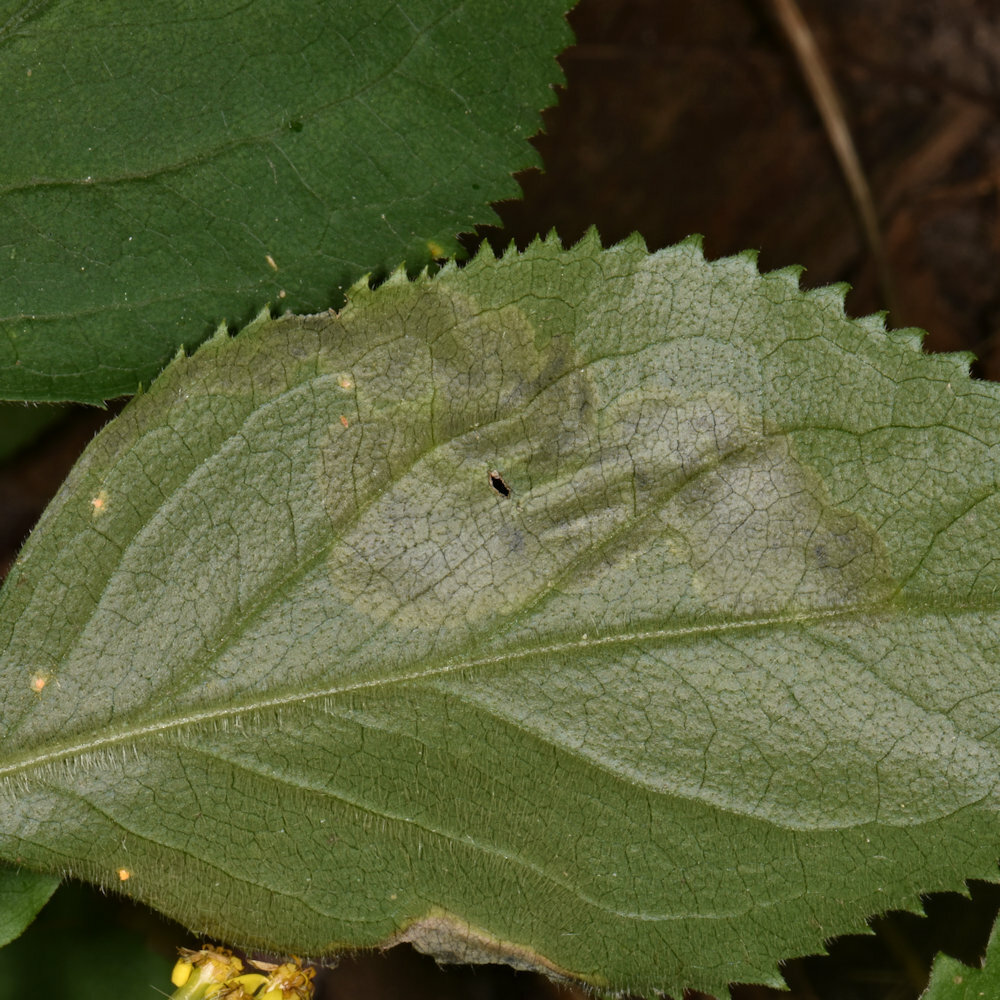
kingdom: Animalia
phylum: Arthropoda
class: Insecta
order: Diptera
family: Agromyzidae
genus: Nemorimyza
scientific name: Nemorimyza posticata
